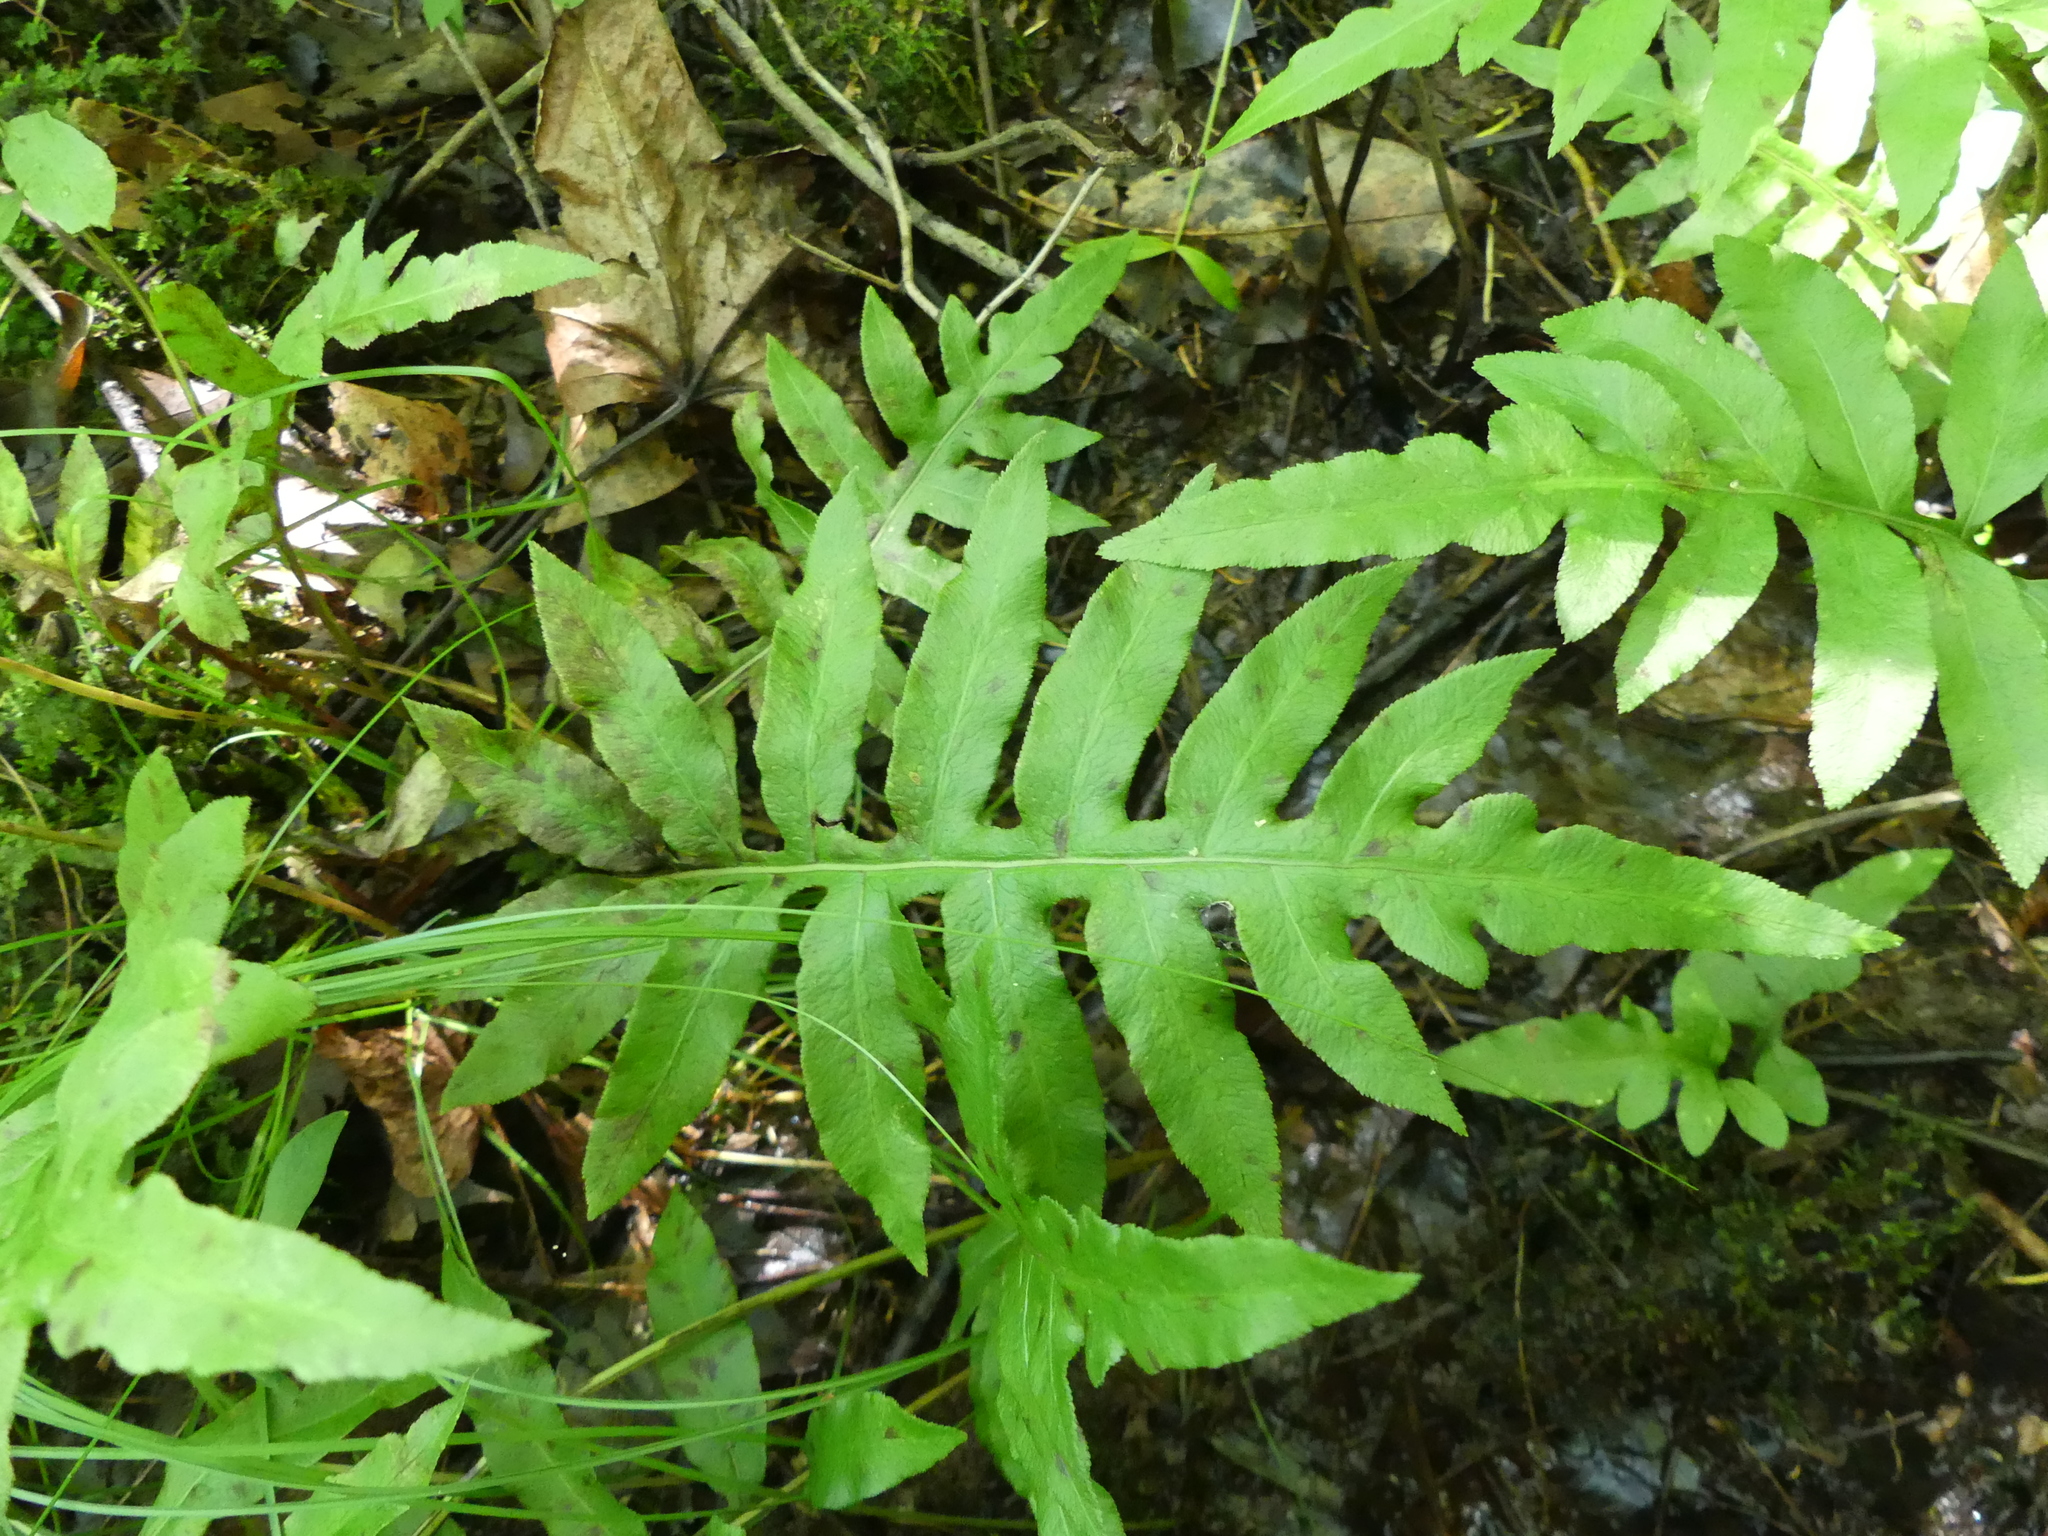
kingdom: Plantae
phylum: Tracheophyta
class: Polypodiopsida
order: Polypodiales
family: Blechnaceae
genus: Lorinseria
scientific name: Lorinseria areolata
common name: Dwarf chain fern
